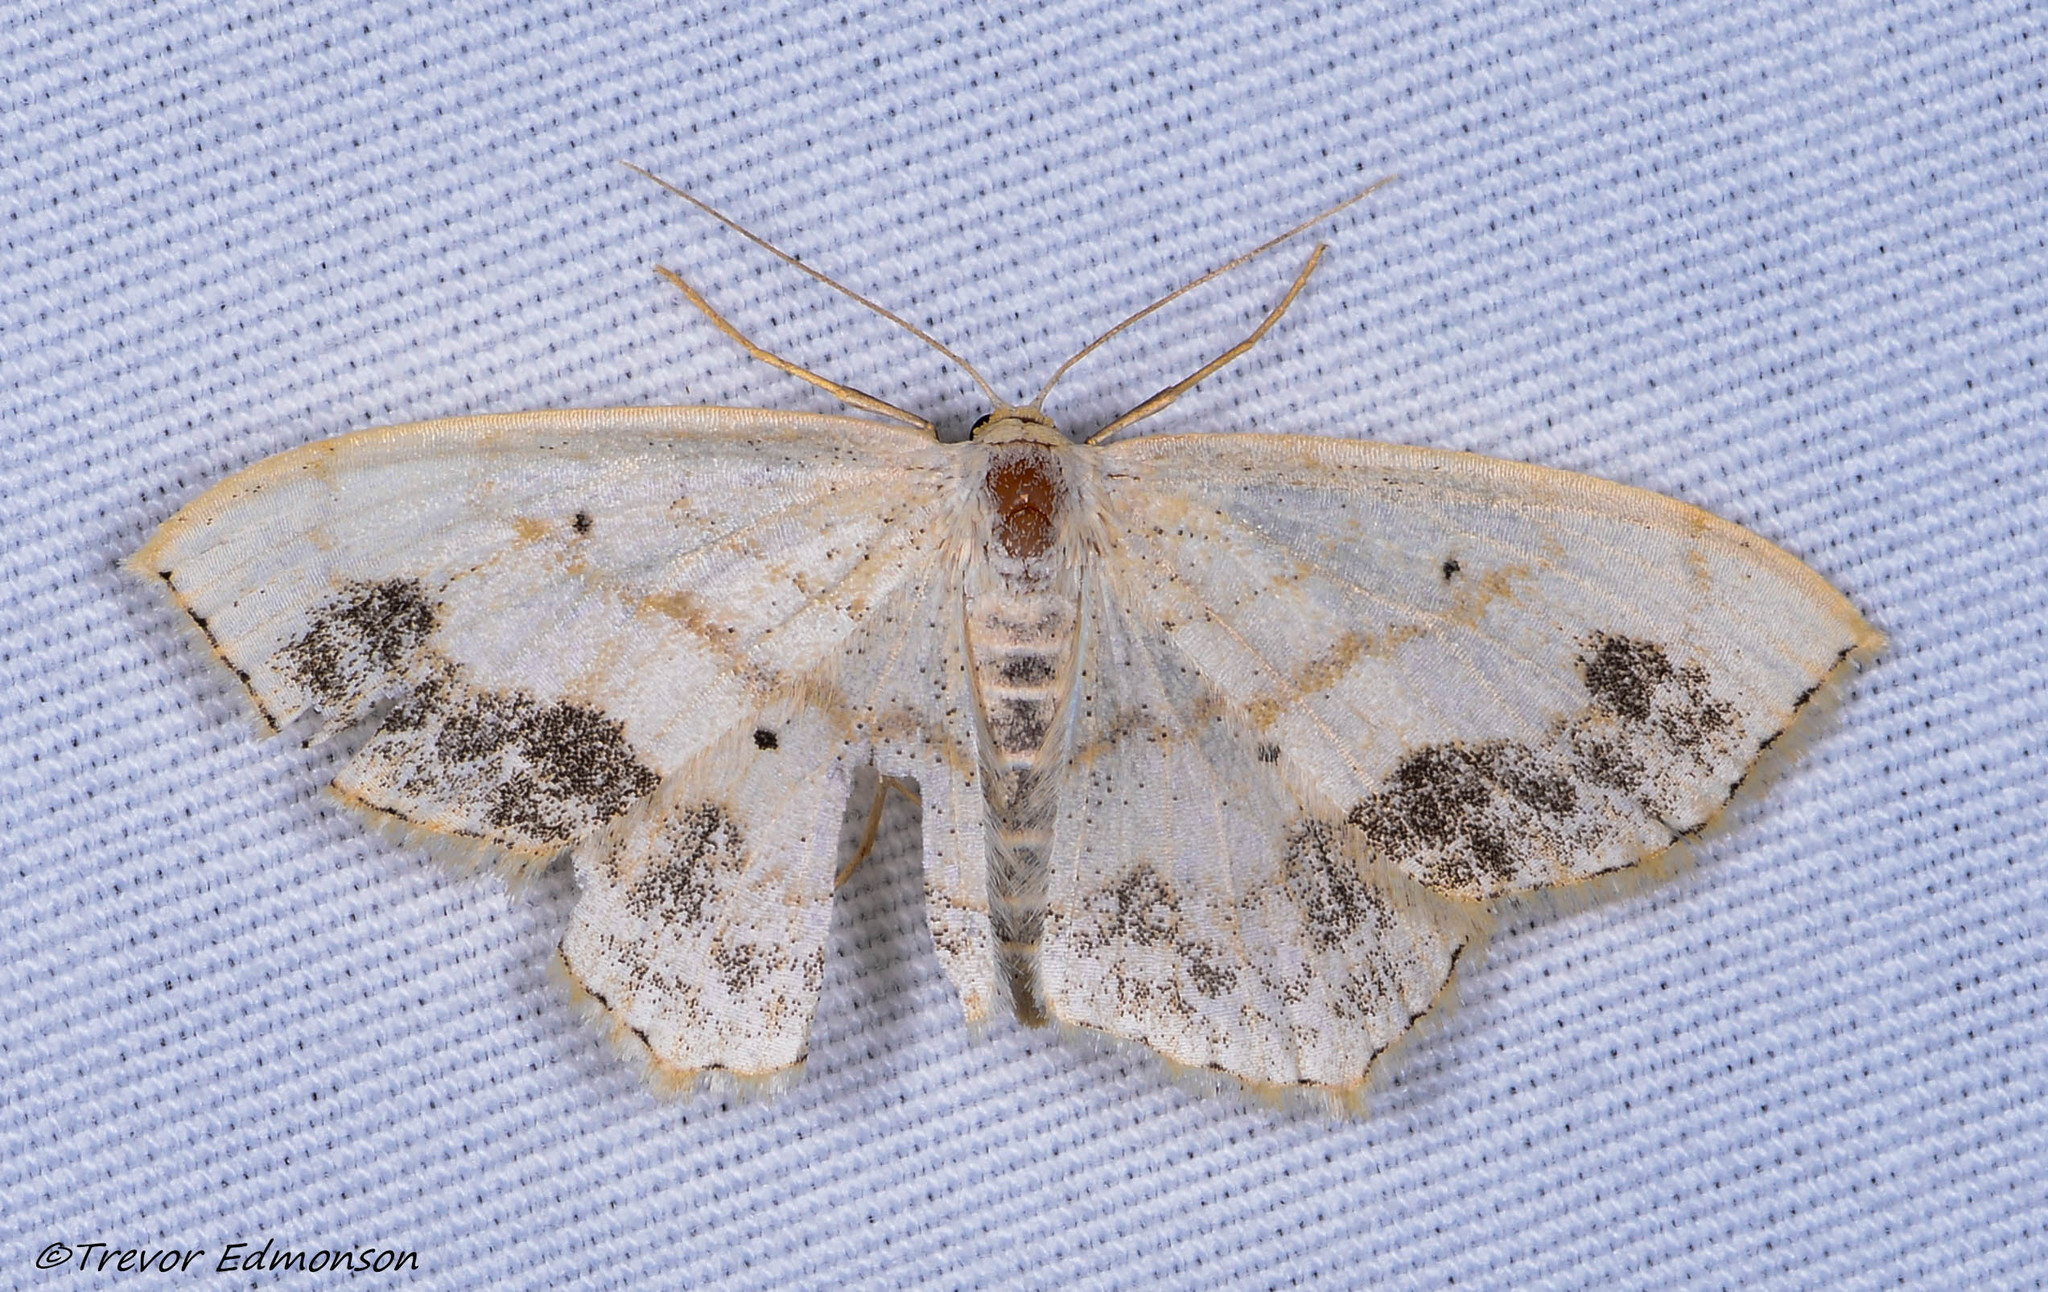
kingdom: Animalia
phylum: Arthropoda
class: Insecta
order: Lepidoptera
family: Geometridae
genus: Scopula
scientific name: Scopula limboundata
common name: Large lace border
